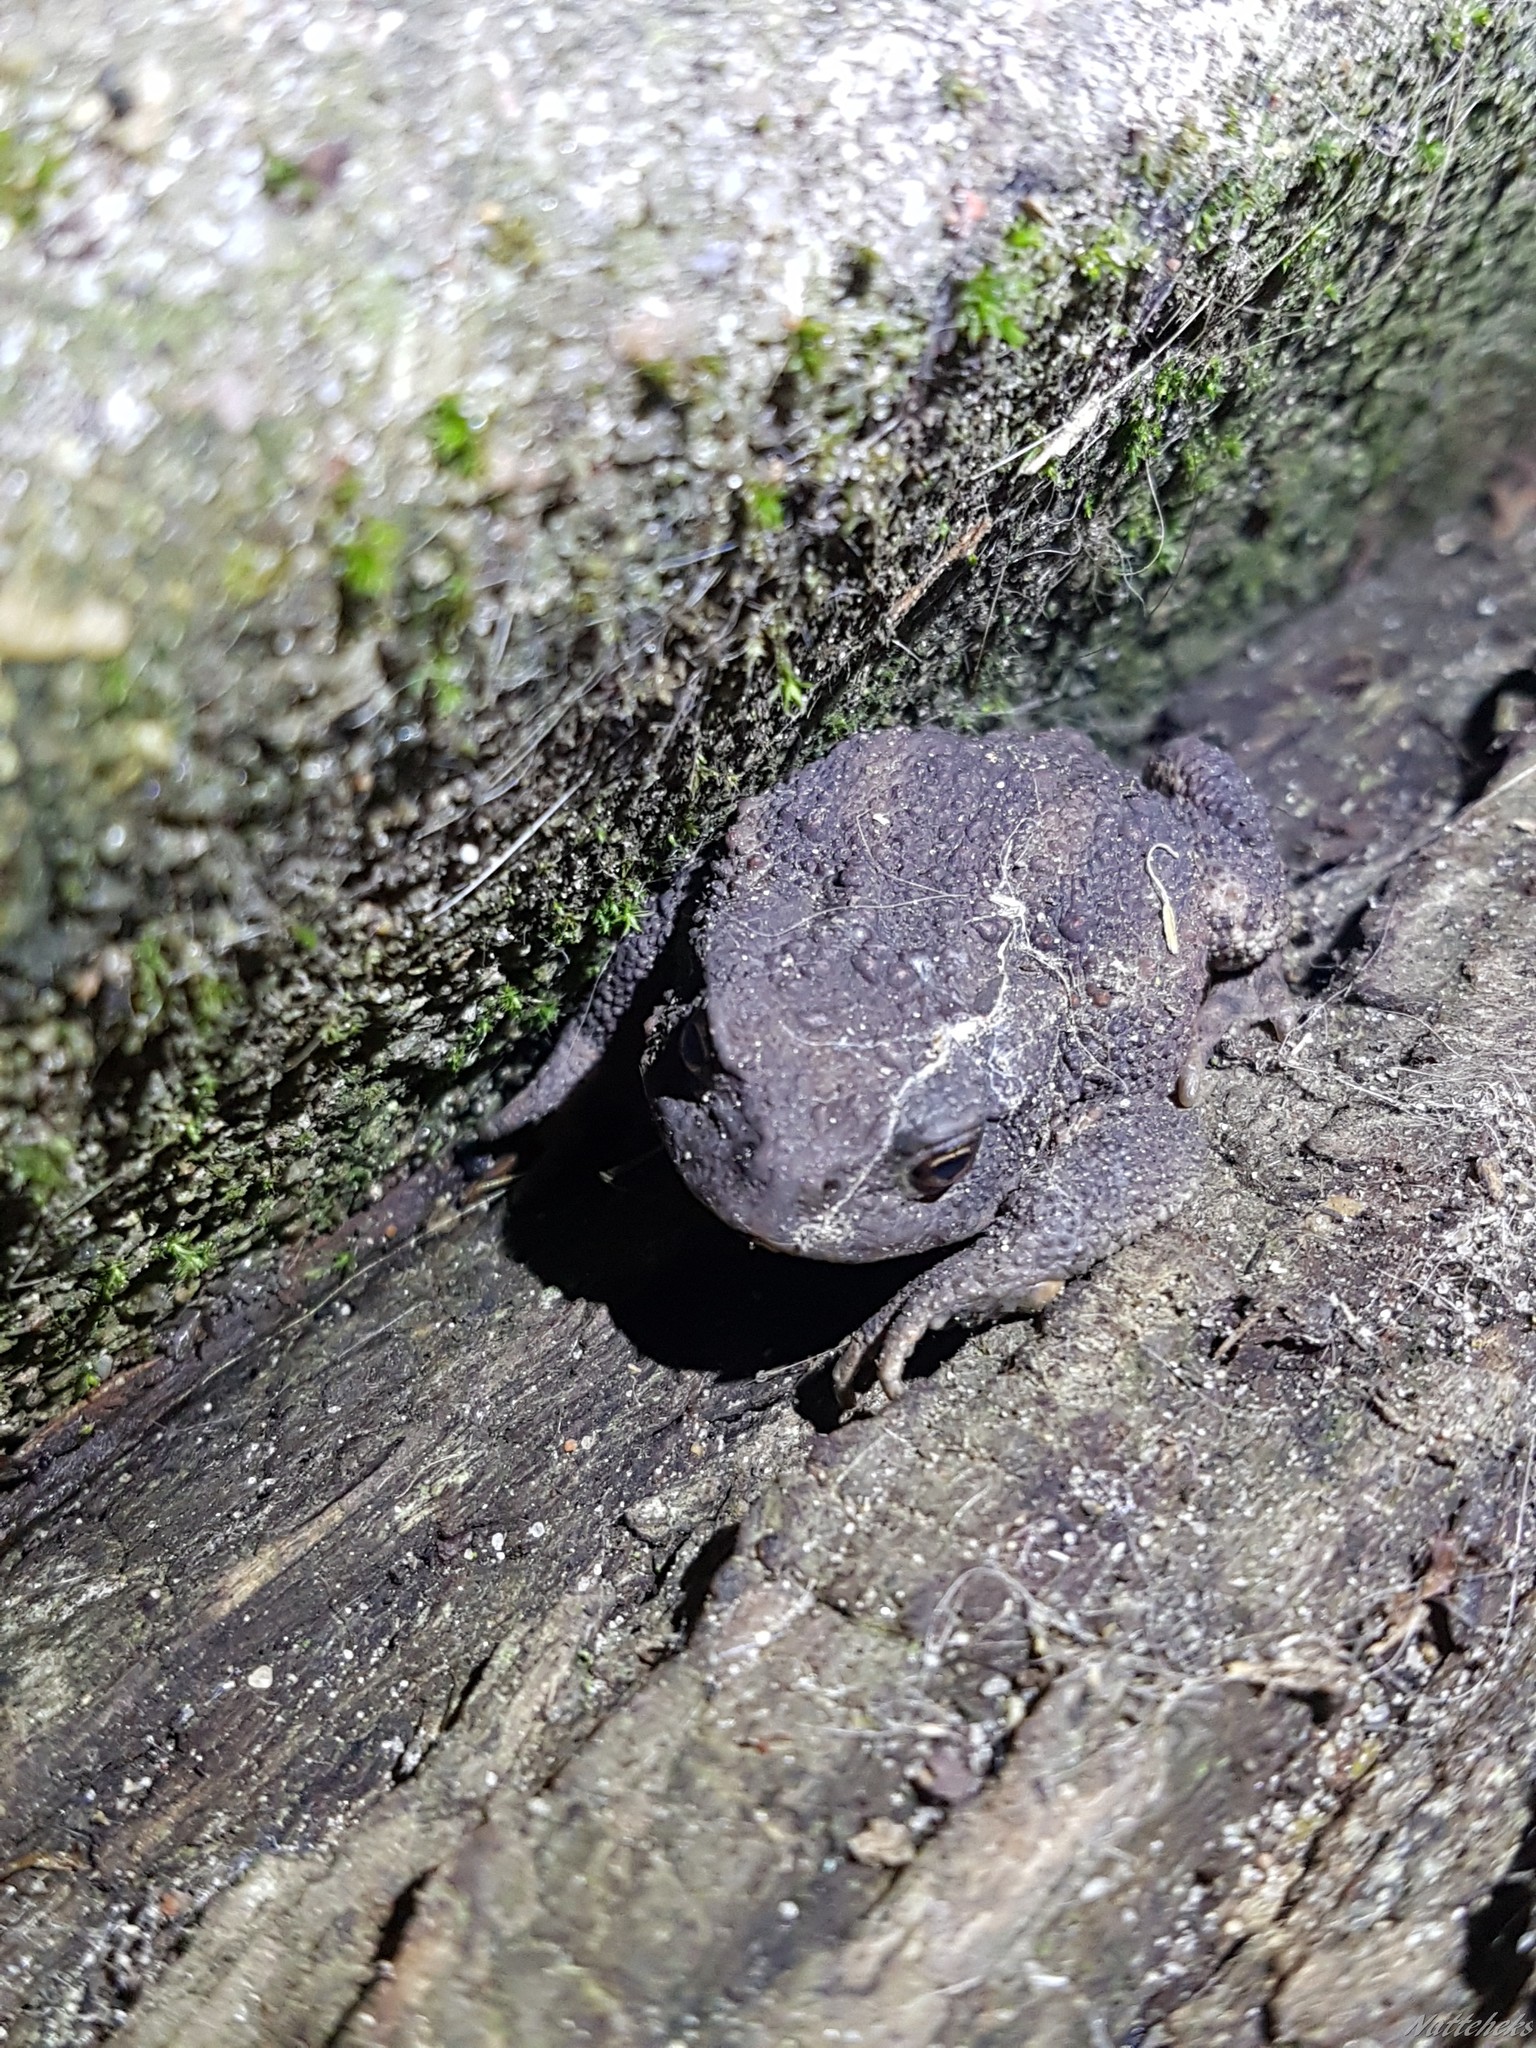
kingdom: Animalia
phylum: Chordata
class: Amphibia
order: Anura
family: Bufonidae
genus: Bufo
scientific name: Bufo bufo
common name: Common toad
